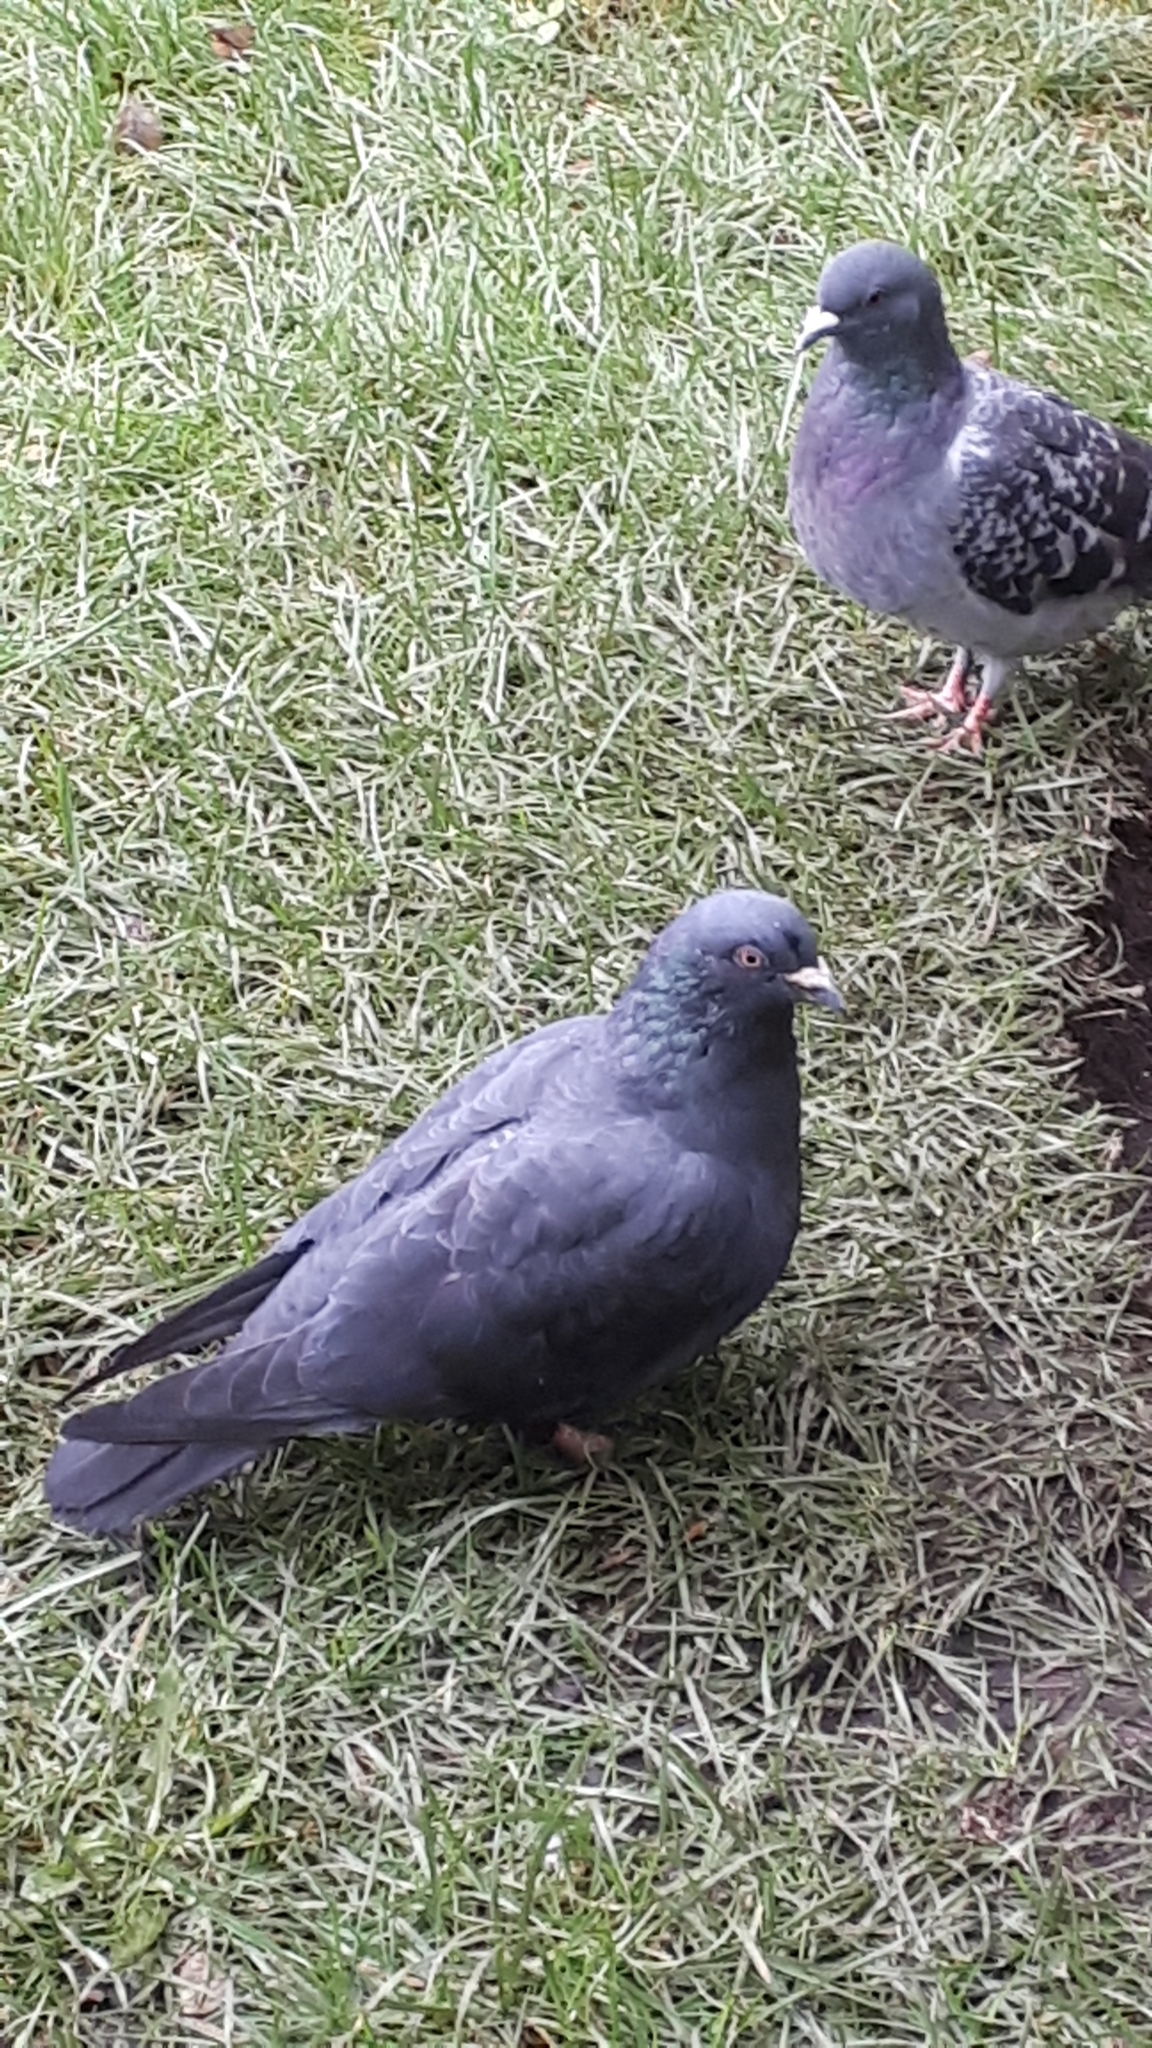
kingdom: Animalia
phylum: Chordata
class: Aves
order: Columbiformes
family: Columbidae
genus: Columba
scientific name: Columba livia
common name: Rock pigeon
